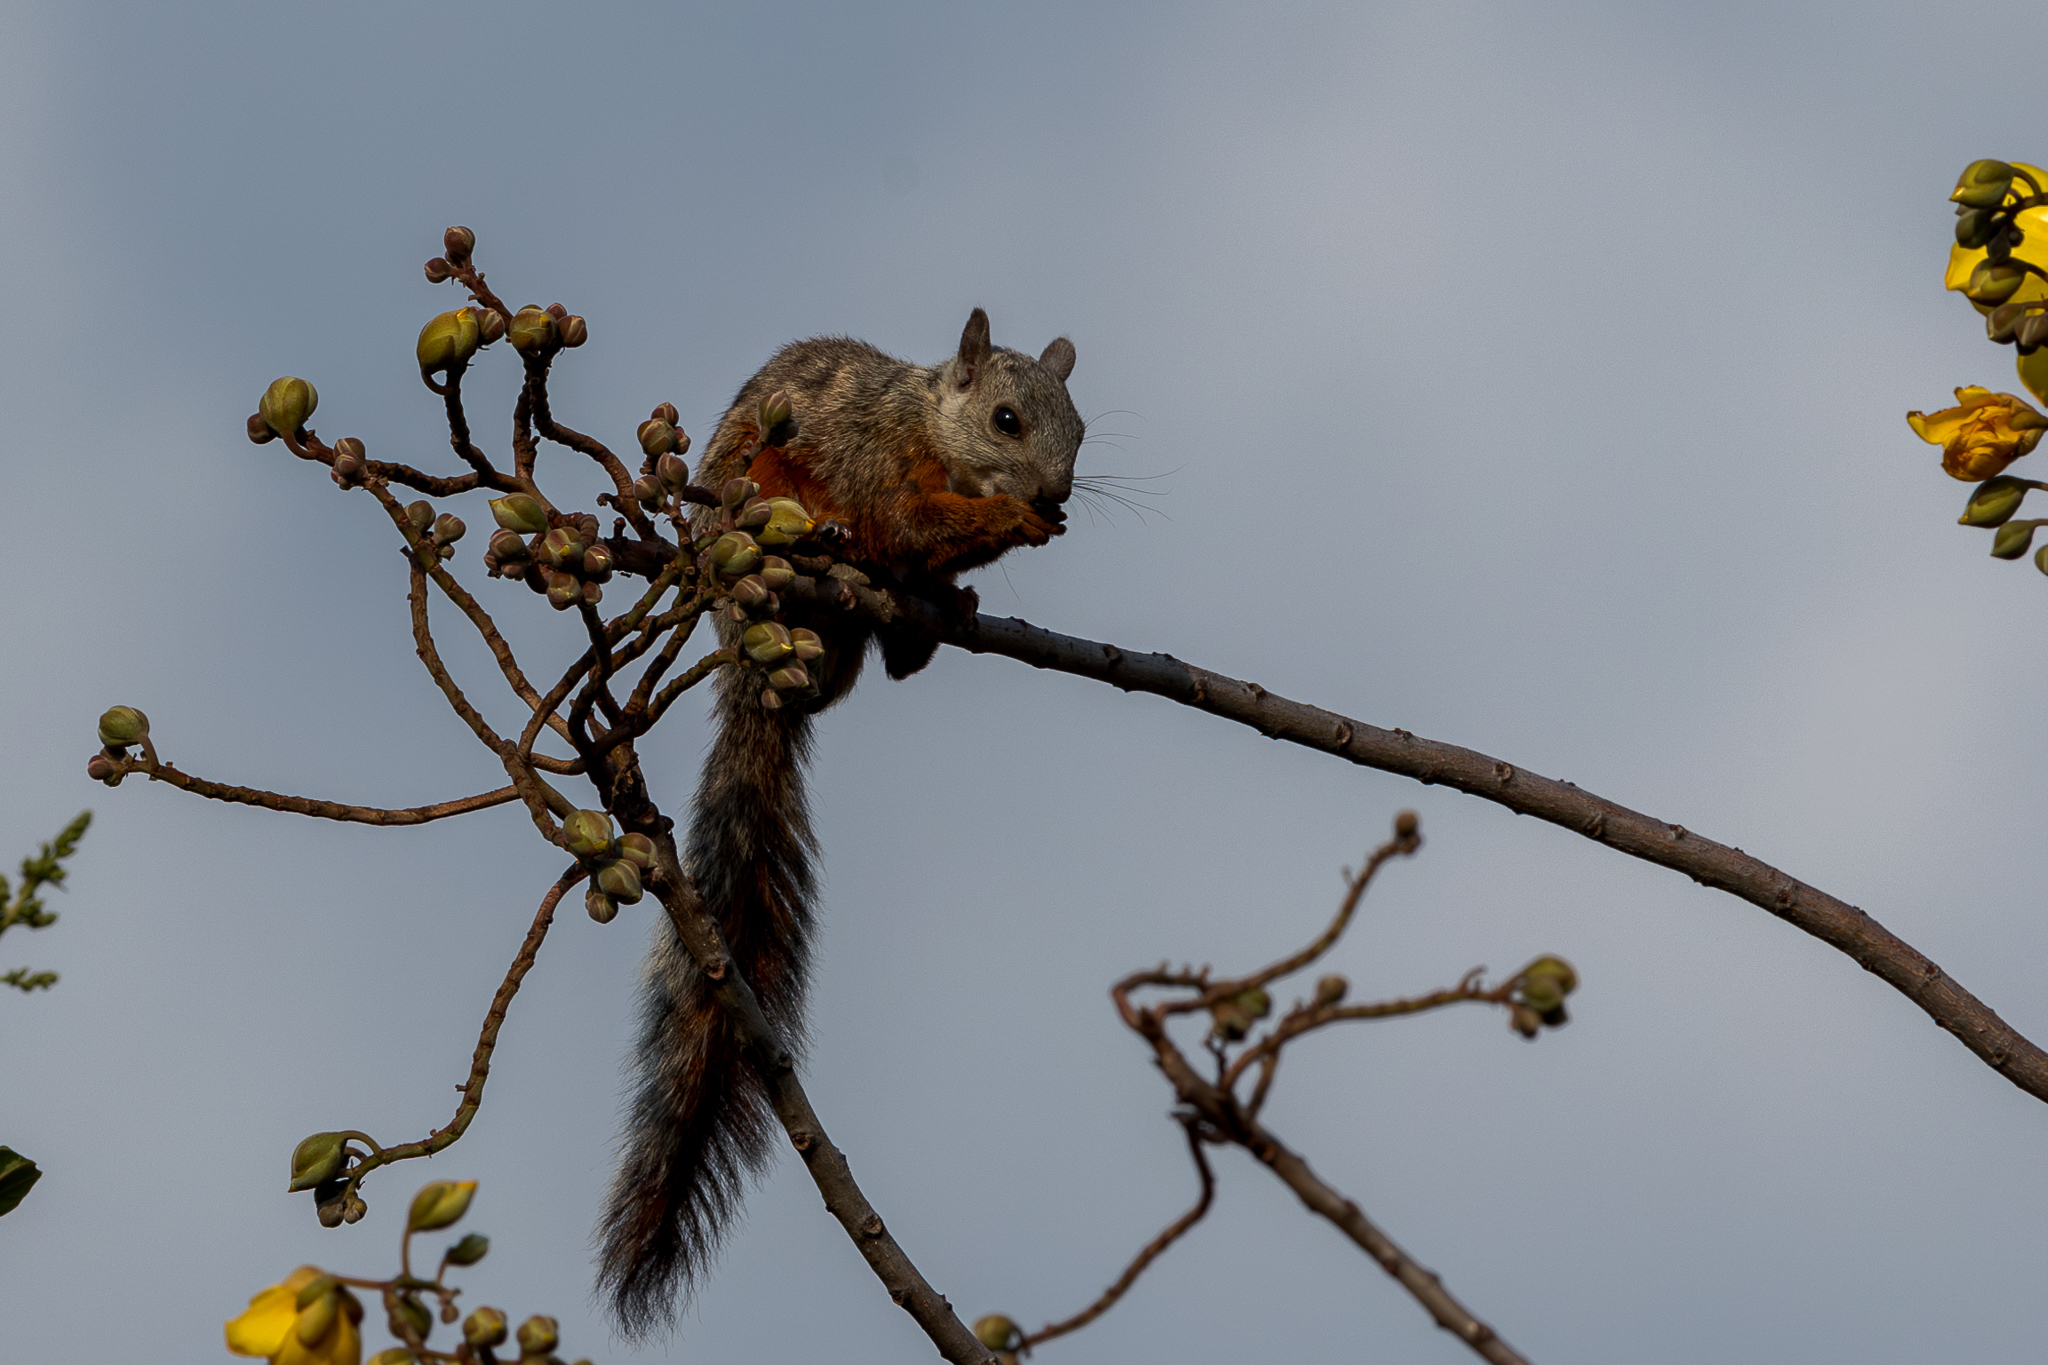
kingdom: Animalia
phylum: Chordata
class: Mammalia
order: Rodentia
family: Sciuridae
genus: Sciurus
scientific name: Sciurus variegatoides
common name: Variegated squirrel
